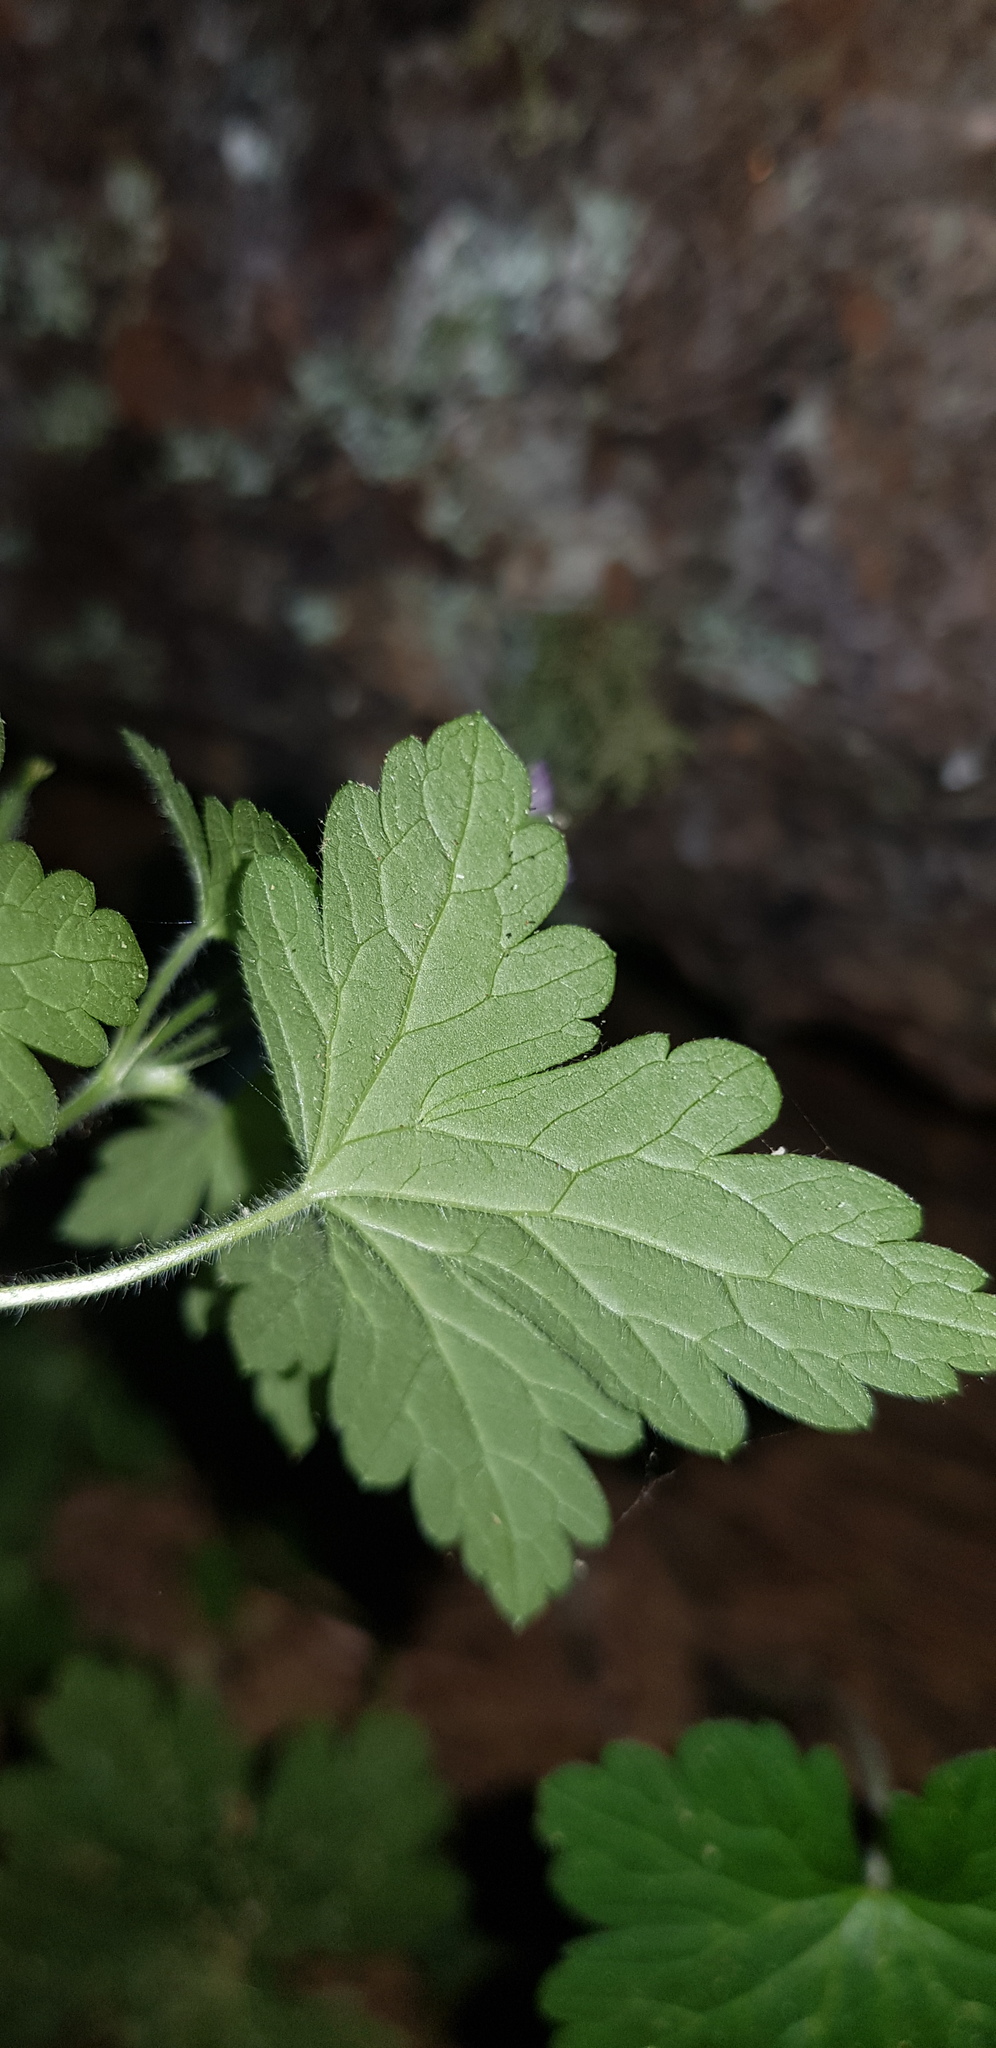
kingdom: Plantae
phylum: Tracheophyta
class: Magnoliopsida
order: Geraniales
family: Geraniaceae
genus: Geranium
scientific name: Geranium seemannii
